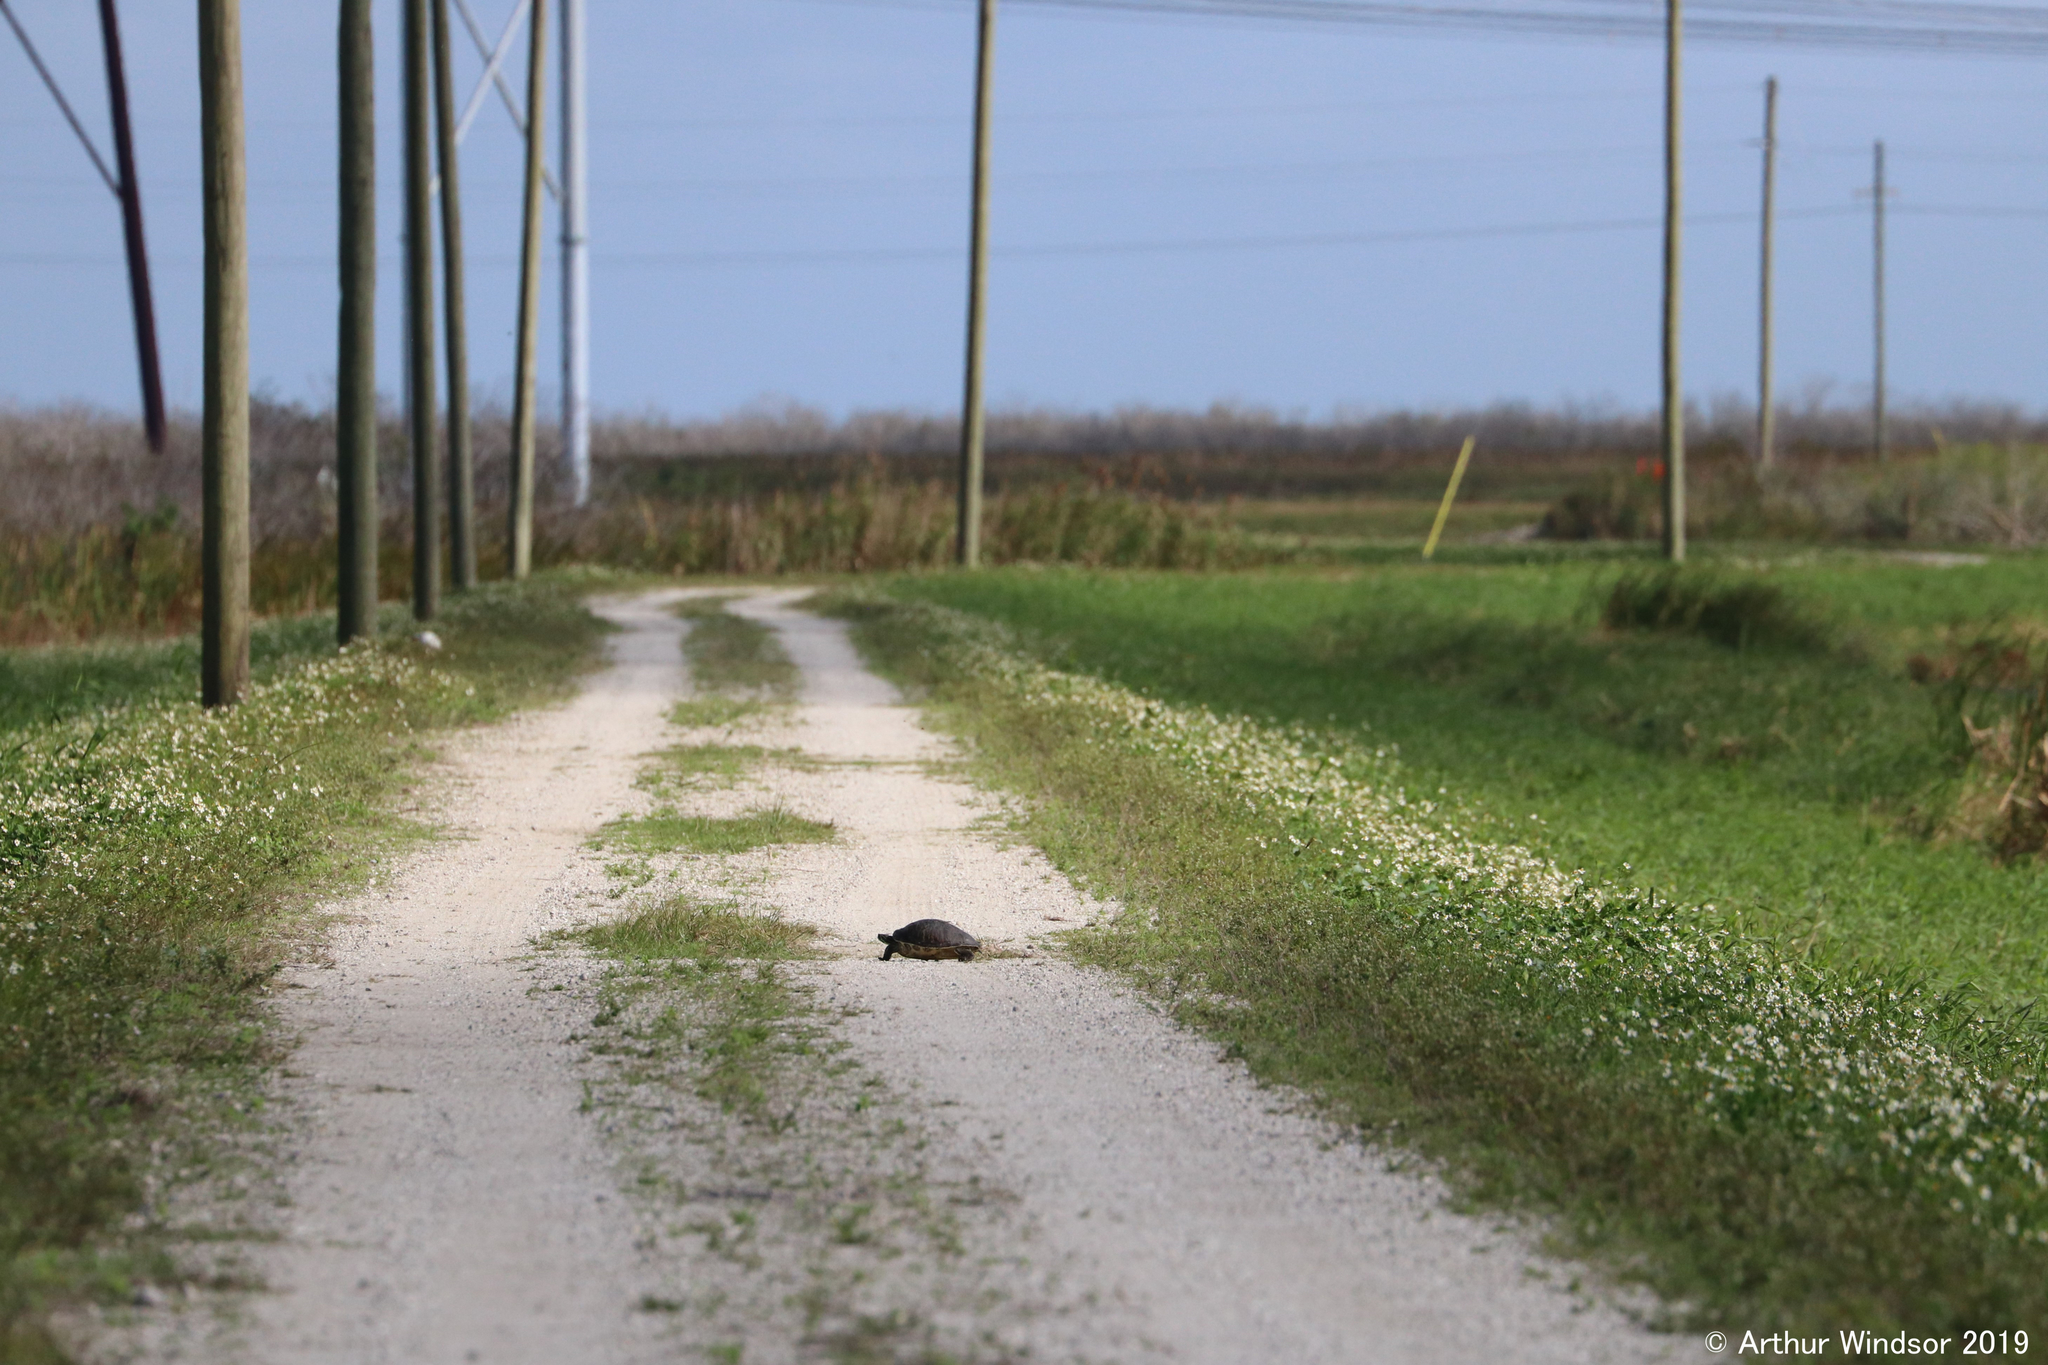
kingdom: Animalia
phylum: Chordata
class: Testudines
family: Emydidae
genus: Pseudemys
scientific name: Pseudemys peninsularis
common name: Peninsula cooter
